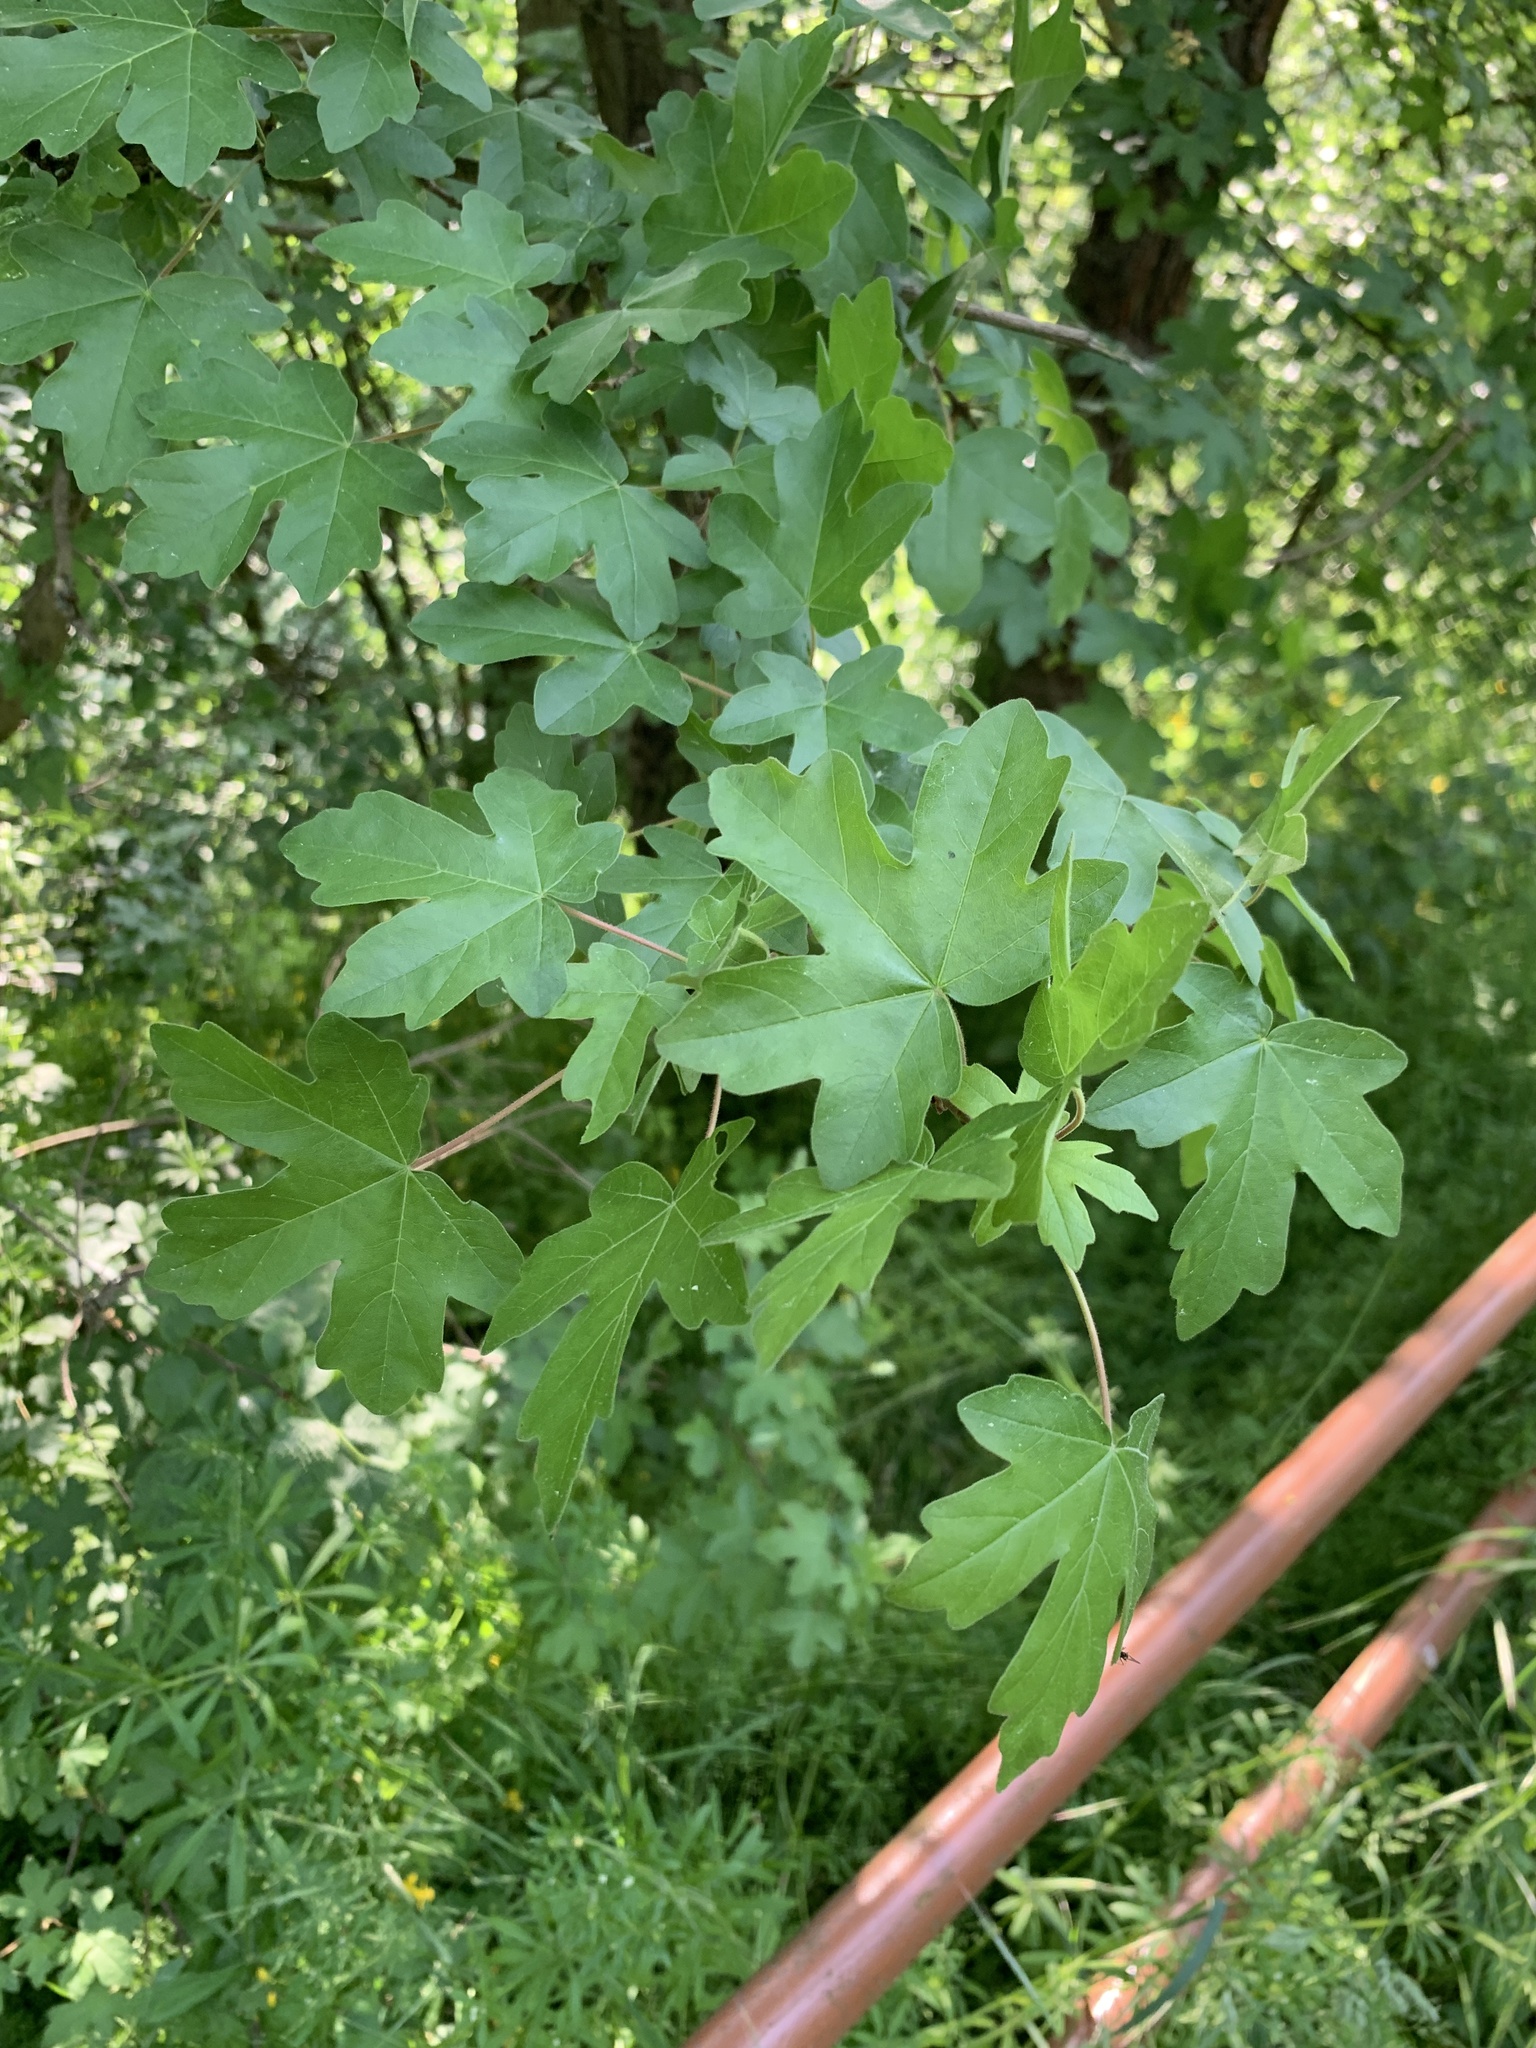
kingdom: Plantae
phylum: Tracheophyta
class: Magnoliopsida
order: Sapindales
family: Sapindaceae
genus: Acer
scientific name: Acer campestre
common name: Field maple
